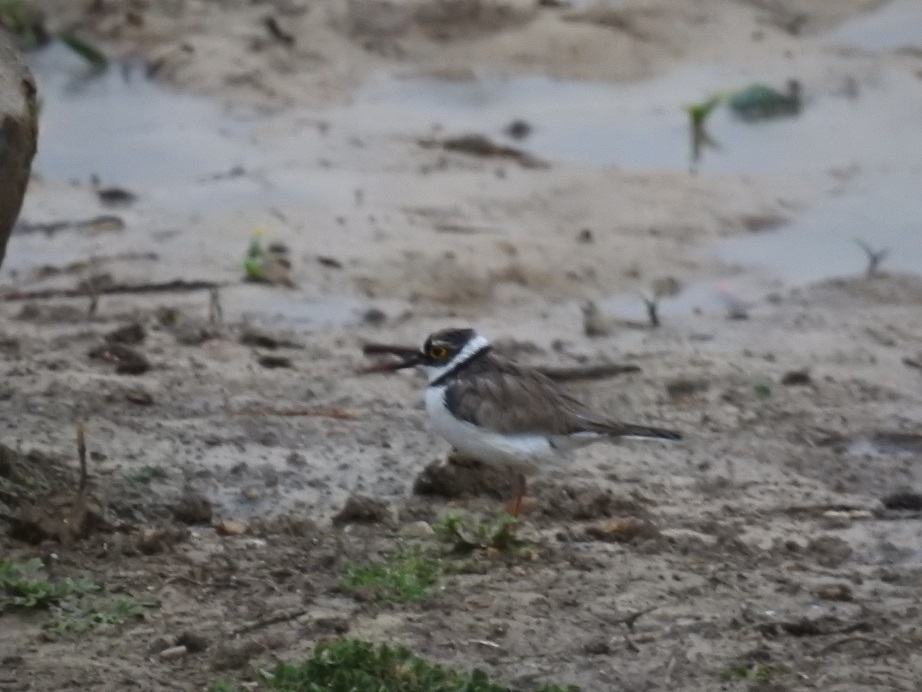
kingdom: Animalia
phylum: Chordata
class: Aves
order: Charadriiformes
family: Charadriidae
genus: Charadrius
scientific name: Charadrius dubius
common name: Little ringed plover
